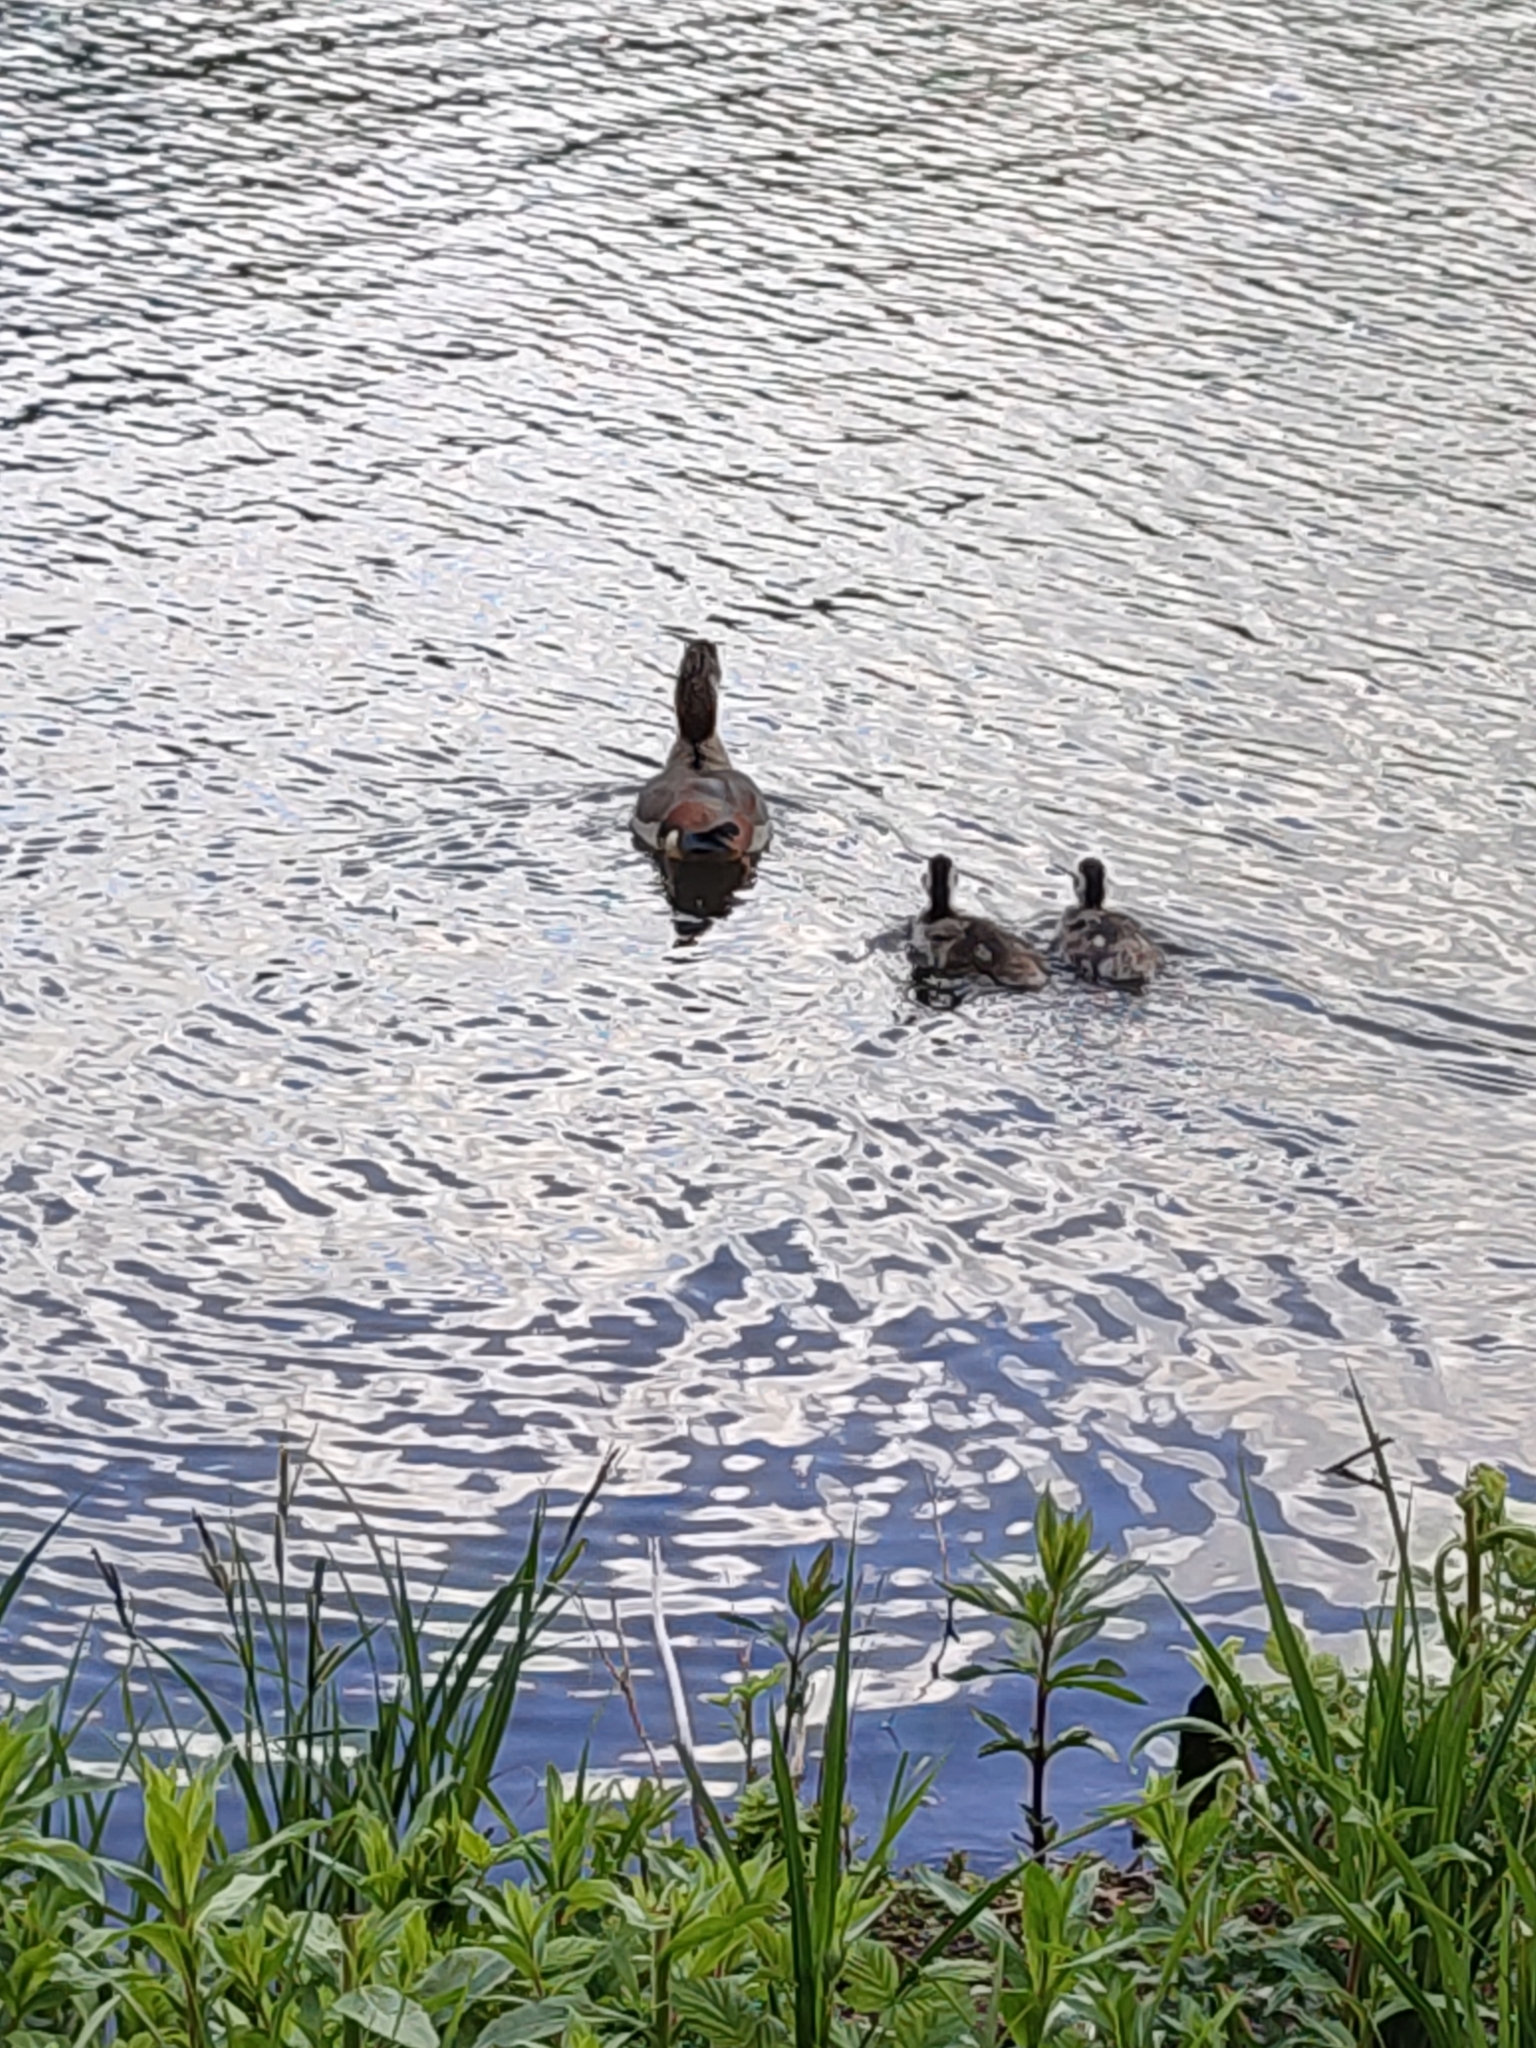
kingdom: Animalia
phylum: Chordata
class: Aves
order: Anseriformes
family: Anatidae
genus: Alopochen
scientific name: Alopochen aegyptiaca
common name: Egyptian goose
